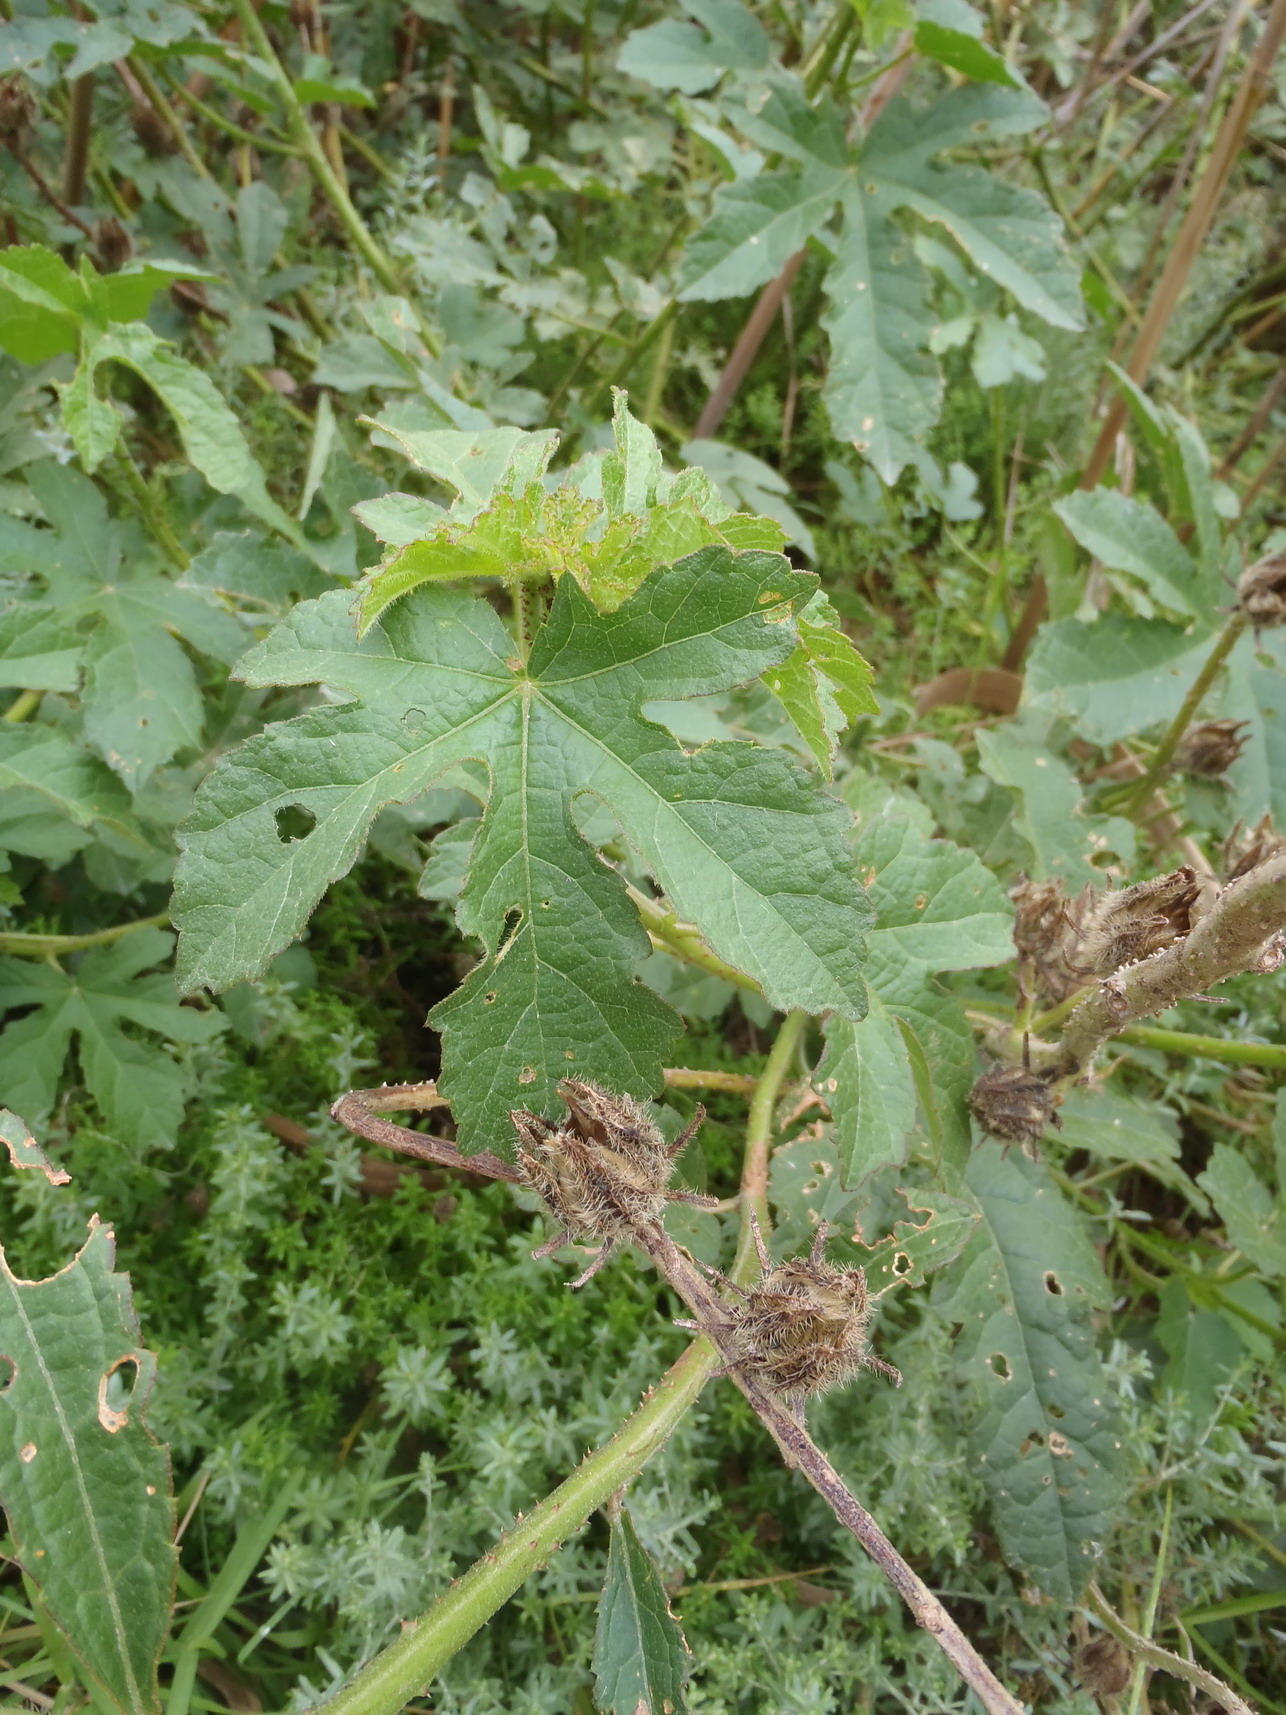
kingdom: Plantae
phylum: Tracheophyta
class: Magnoliopsida
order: Malvales
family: Malvaceae
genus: Hibiscus
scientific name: Hibiscus diversifolius
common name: Cape hibiscus
